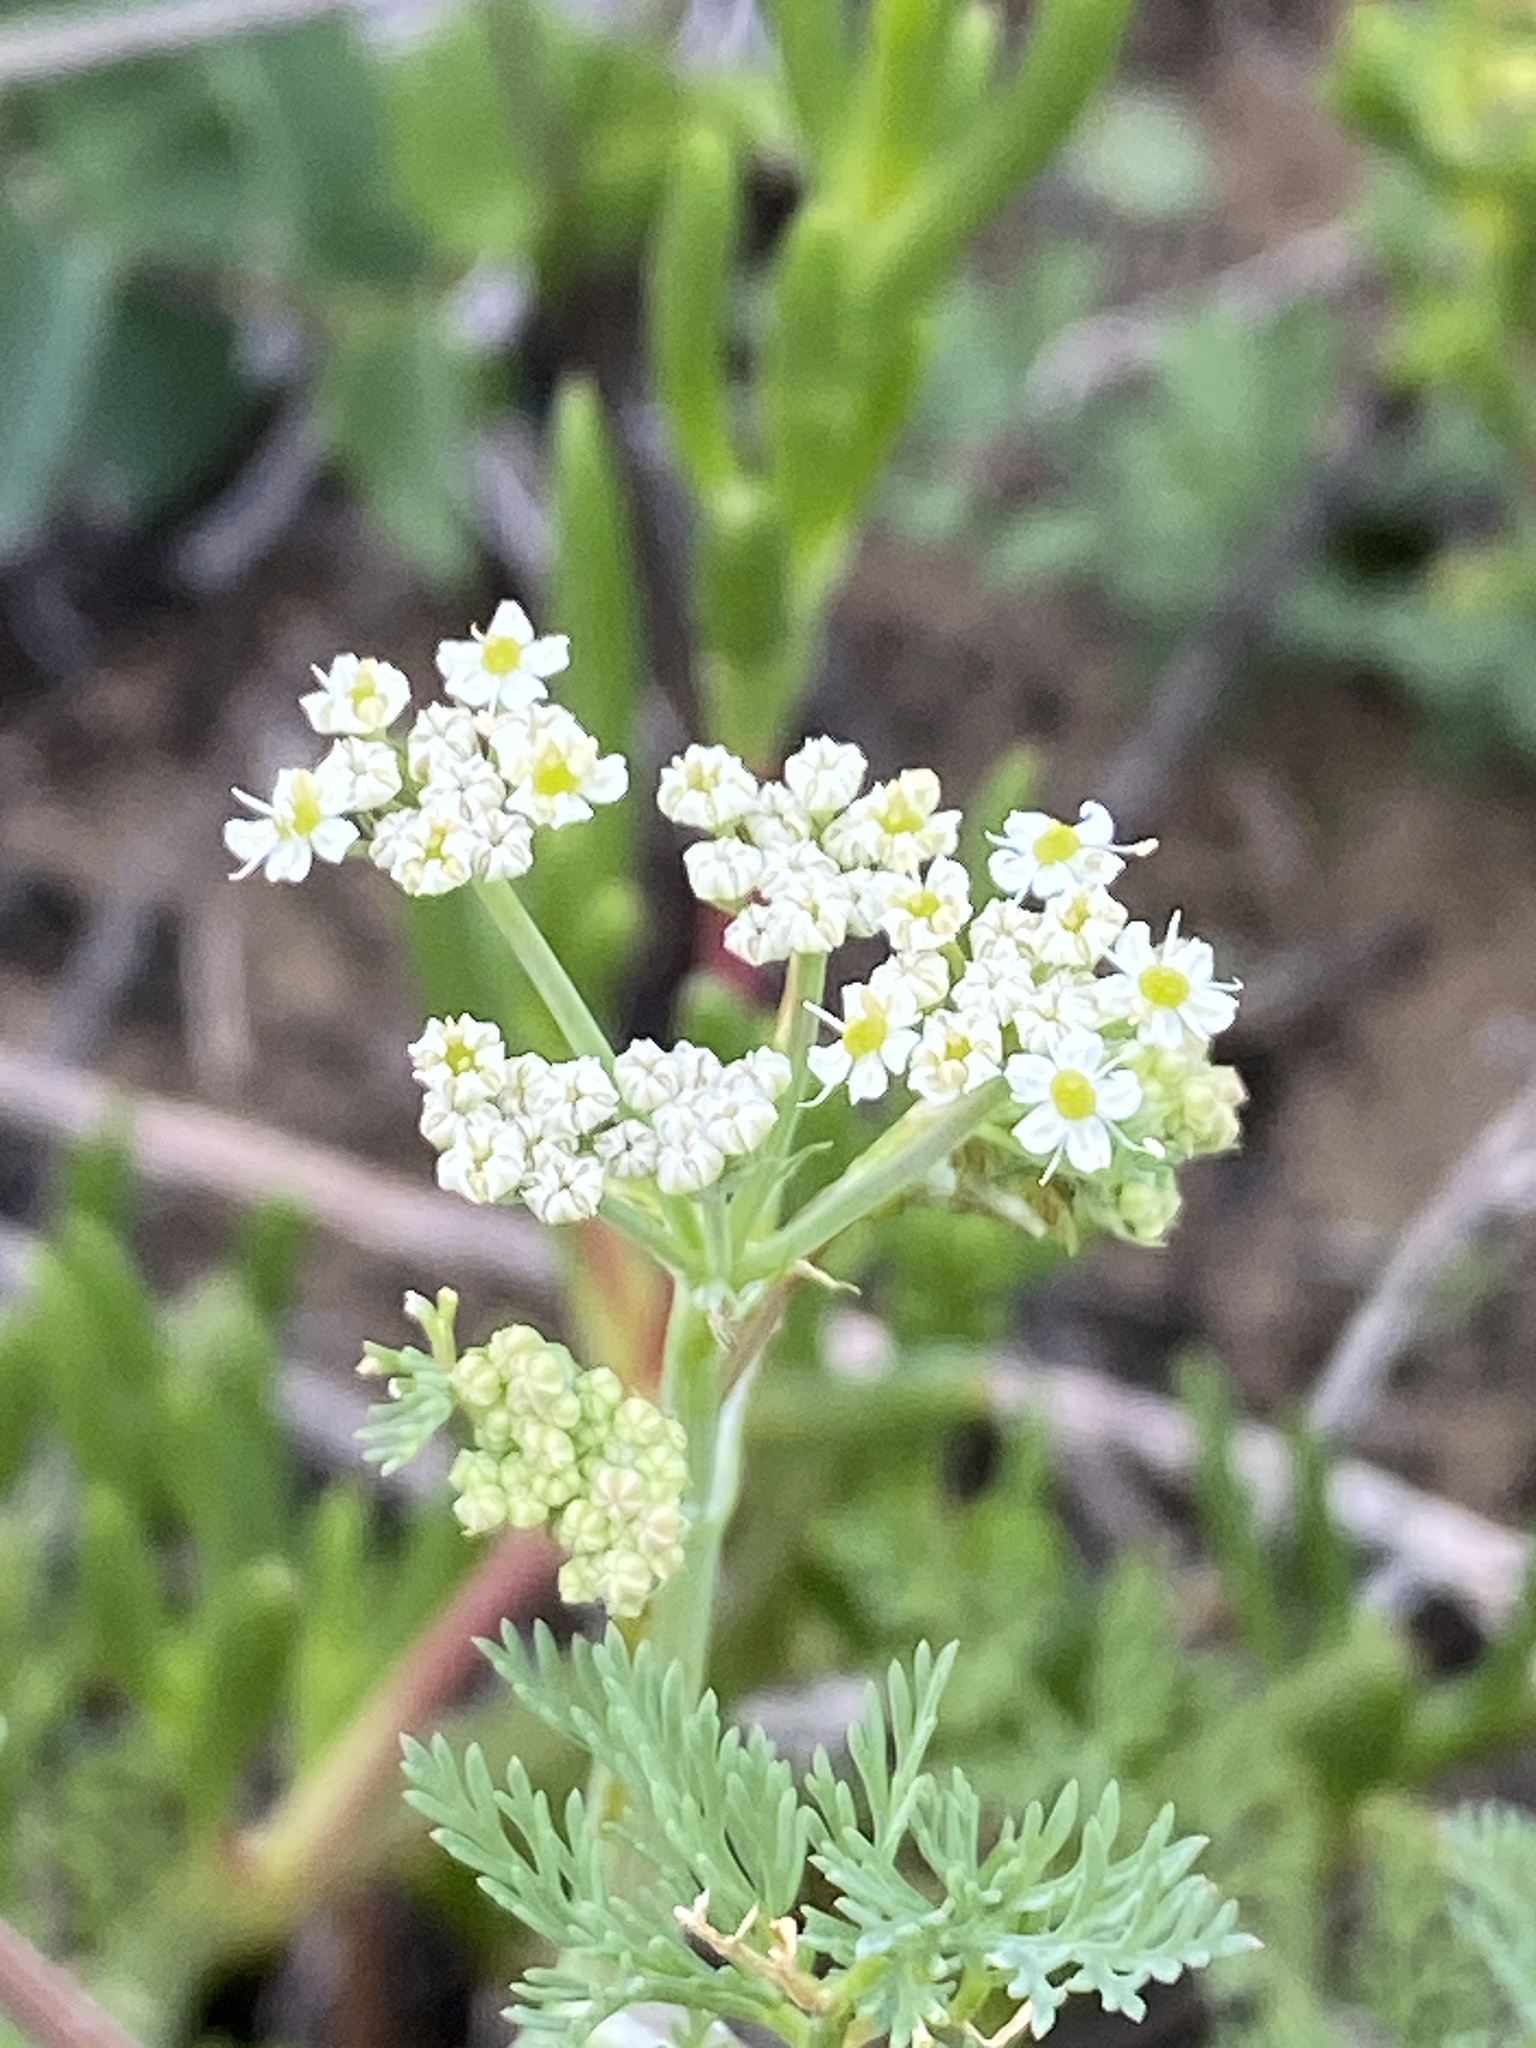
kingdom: Plantae
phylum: Tracheophyta
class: Magnoliopsida
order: Apiales
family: Apiaceae
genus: Capnophyllum
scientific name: Capnophyllum africanum
